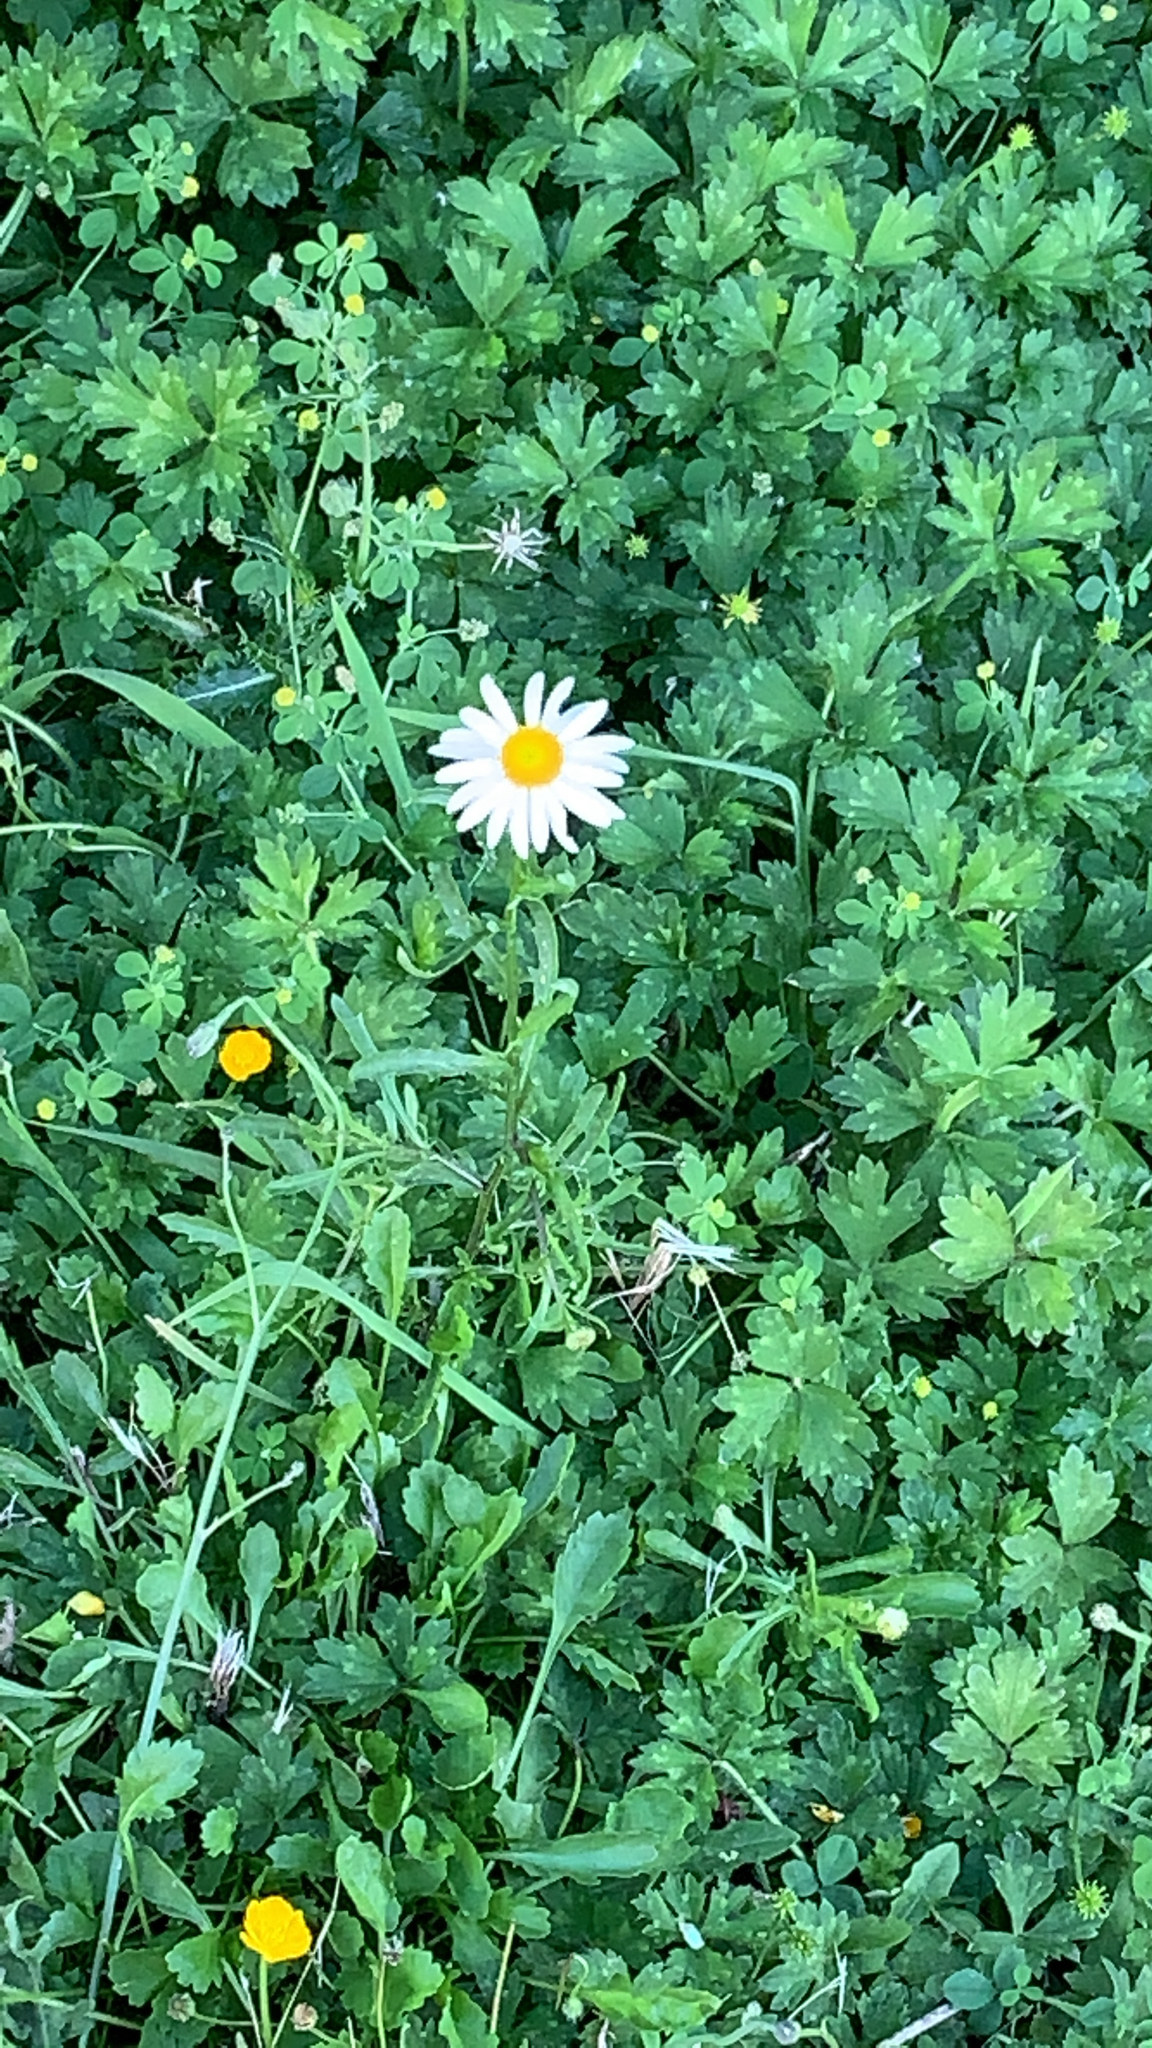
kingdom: Plantae
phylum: Tracheophyta
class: Magnoliopsida
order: Asterales
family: Asteraceae
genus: Leucanthemum
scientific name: Leucanthemum vulgare
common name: Oxeye daisy
